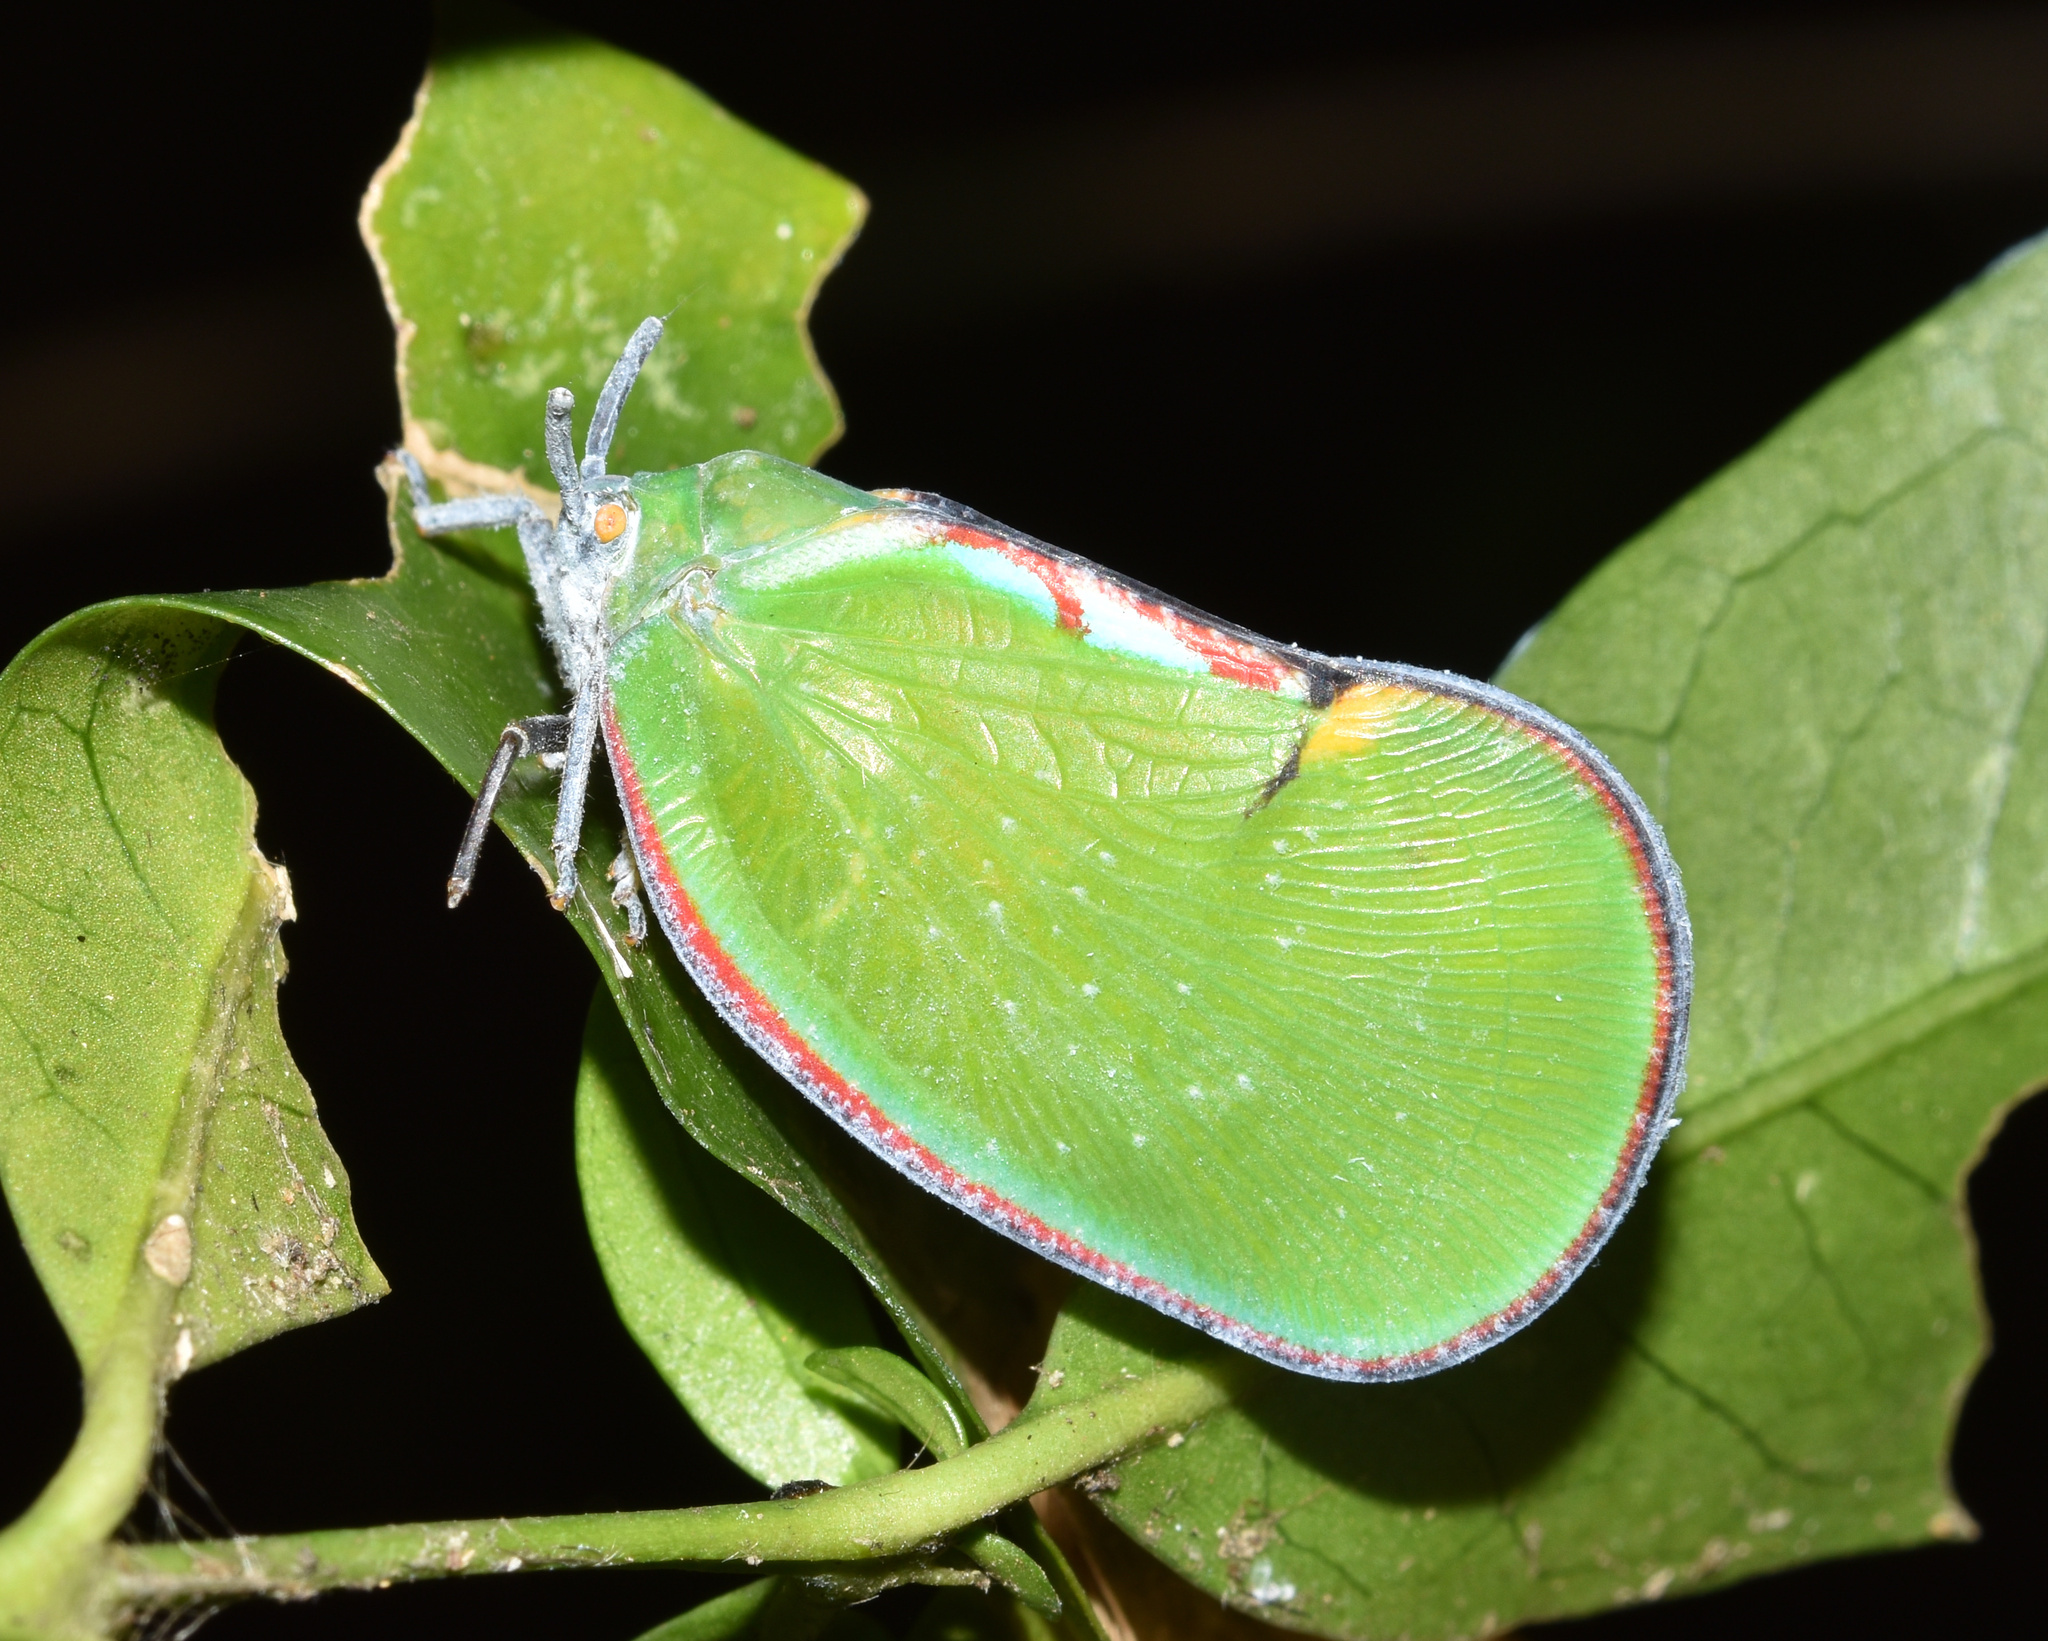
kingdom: Animalia
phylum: Arthropoda
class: Insecta
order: Hemiptera
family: Flatidae
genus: Ityraea
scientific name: Ityraea nigrocincta
